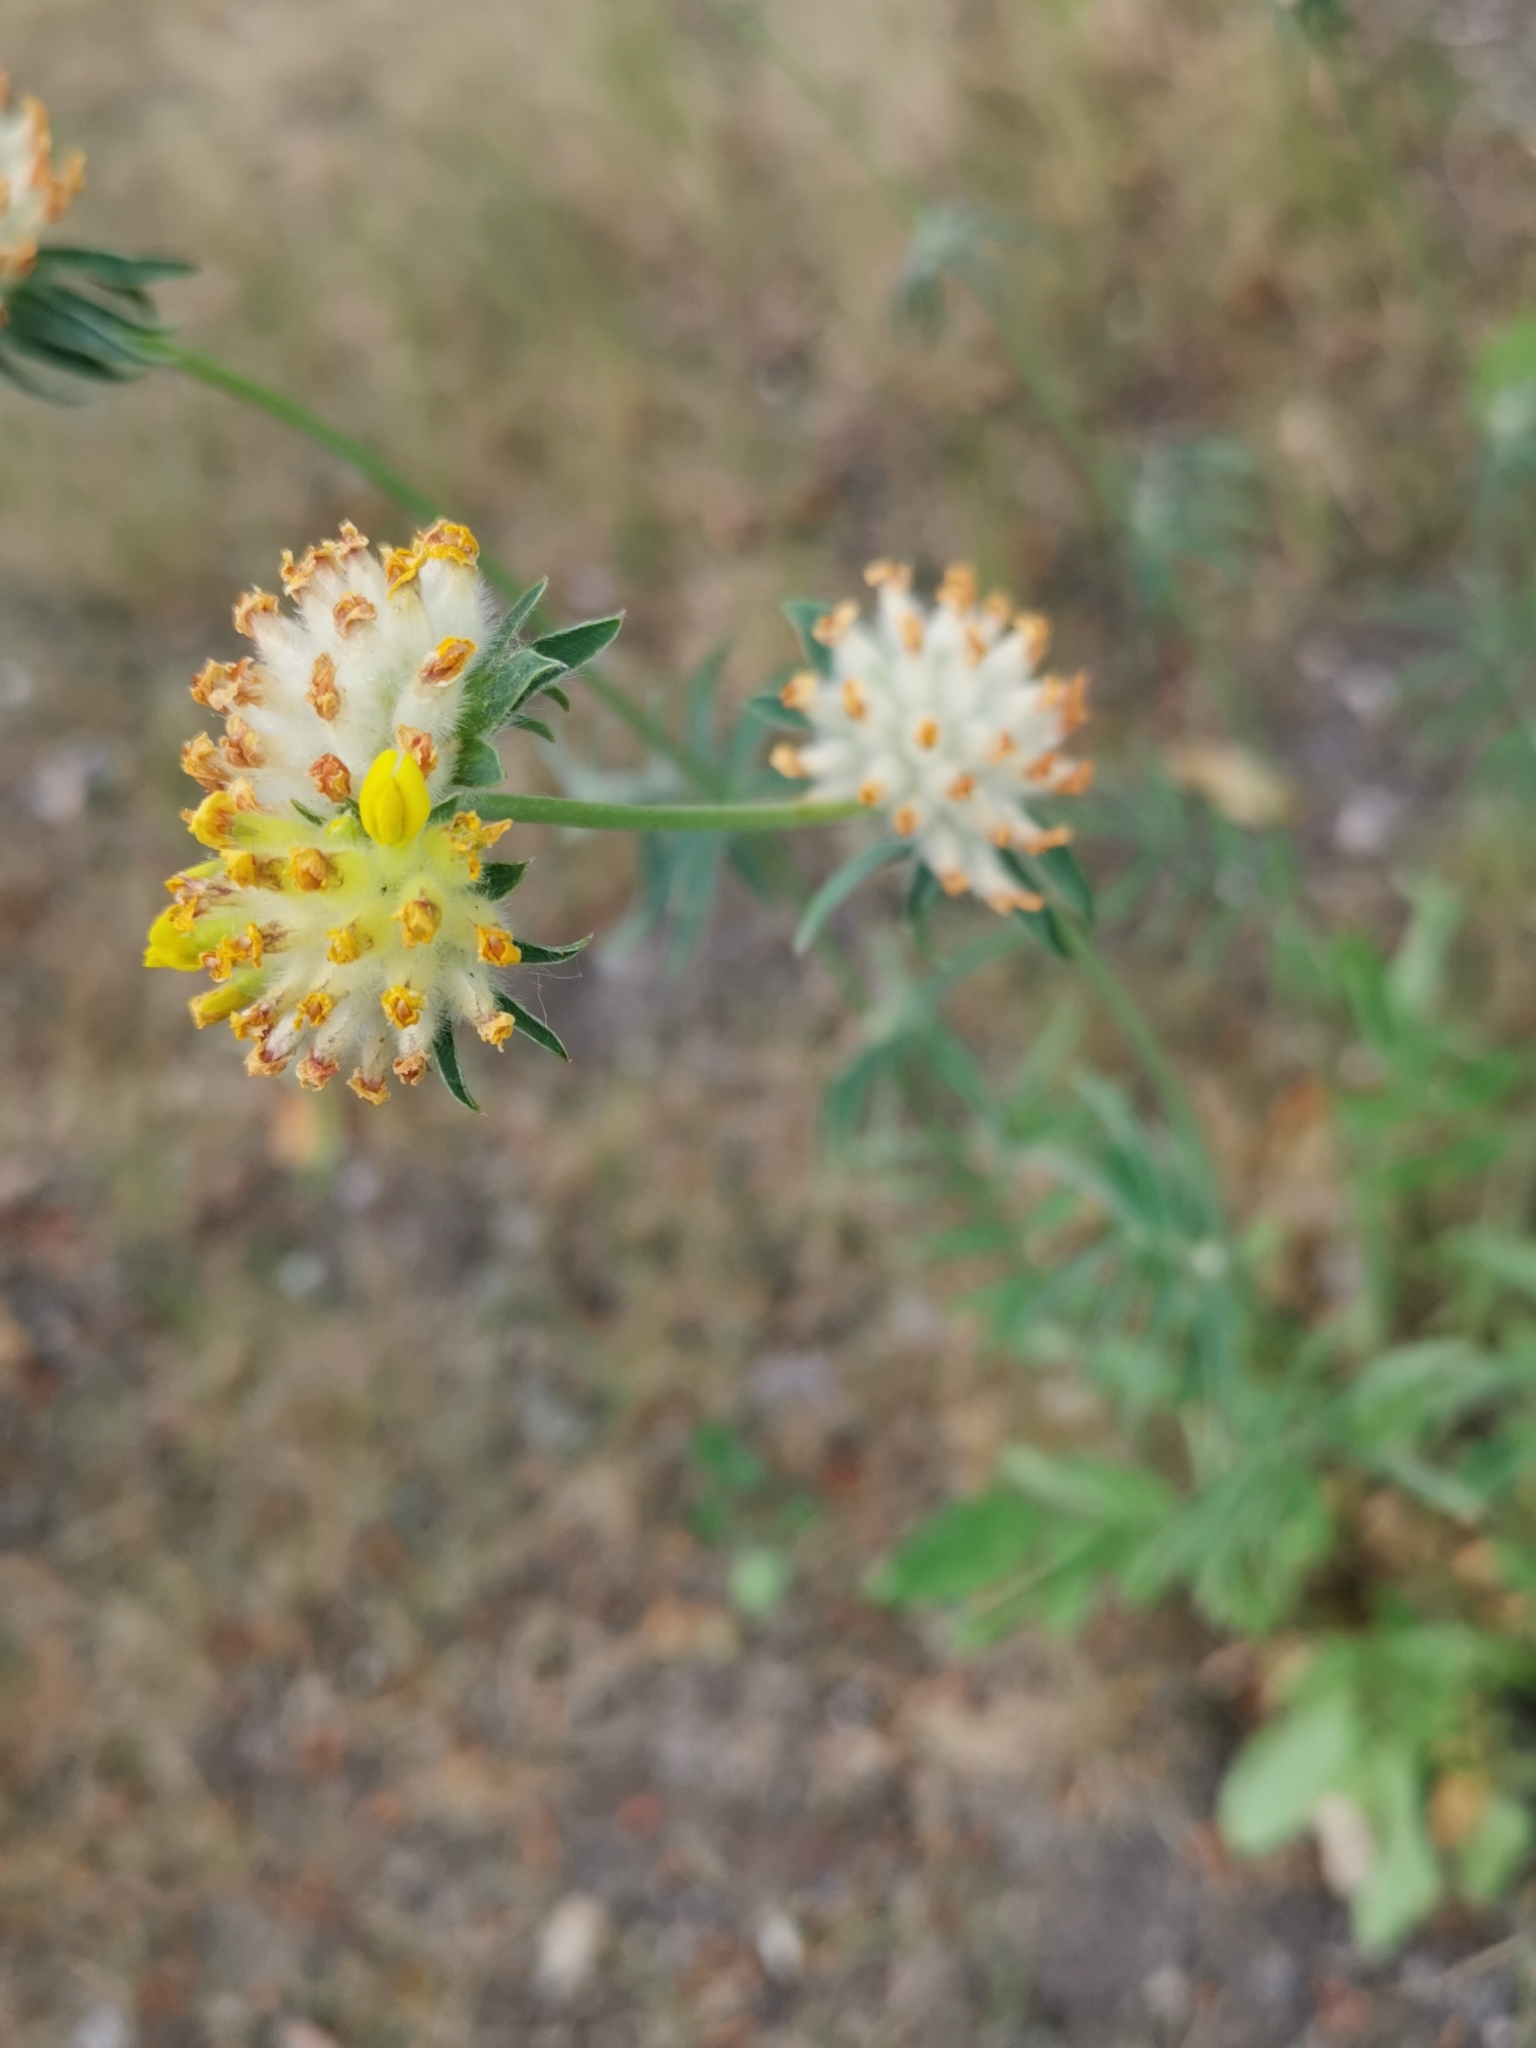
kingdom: Plantae
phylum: Tracheophyta
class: Magnoliopsida
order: Fabales
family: Fabaceae
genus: Anthyllis
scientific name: Anthyllis vulneraria
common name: Kidney vetch
